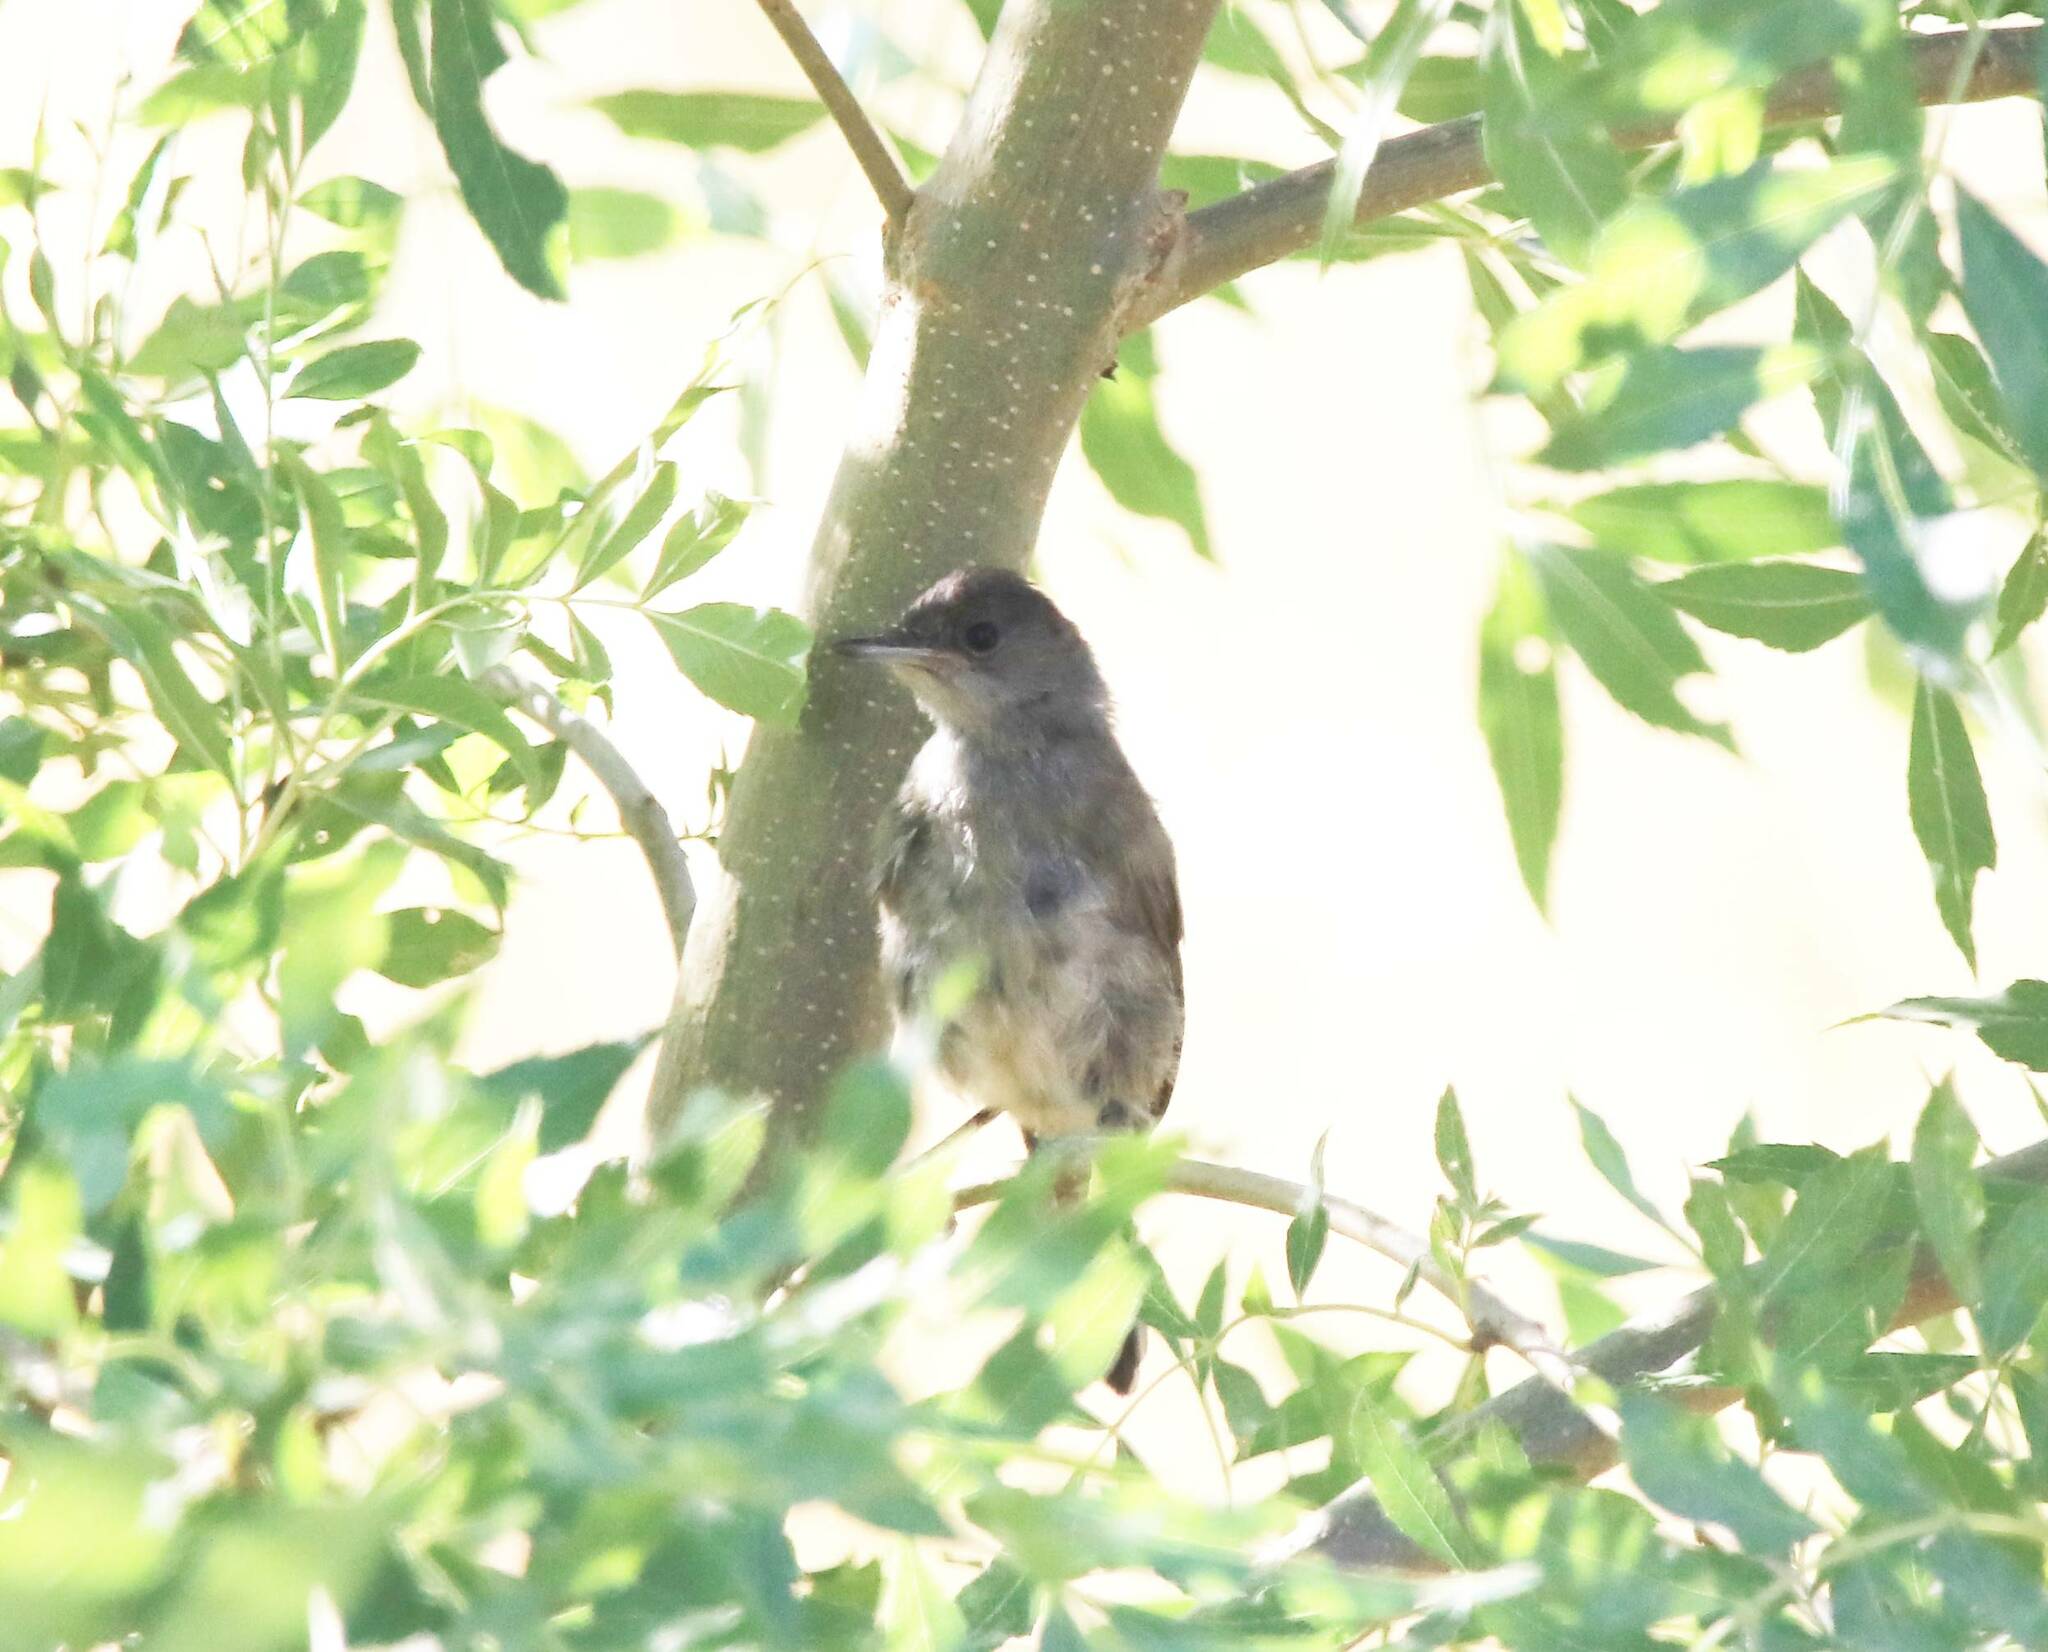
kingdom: Animalia
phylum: Chordata
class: Aves
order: Passeriformes
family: Sylviidae
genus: Sylvia
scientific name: Sylvia atricapilla
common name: Eurasian blackcap
